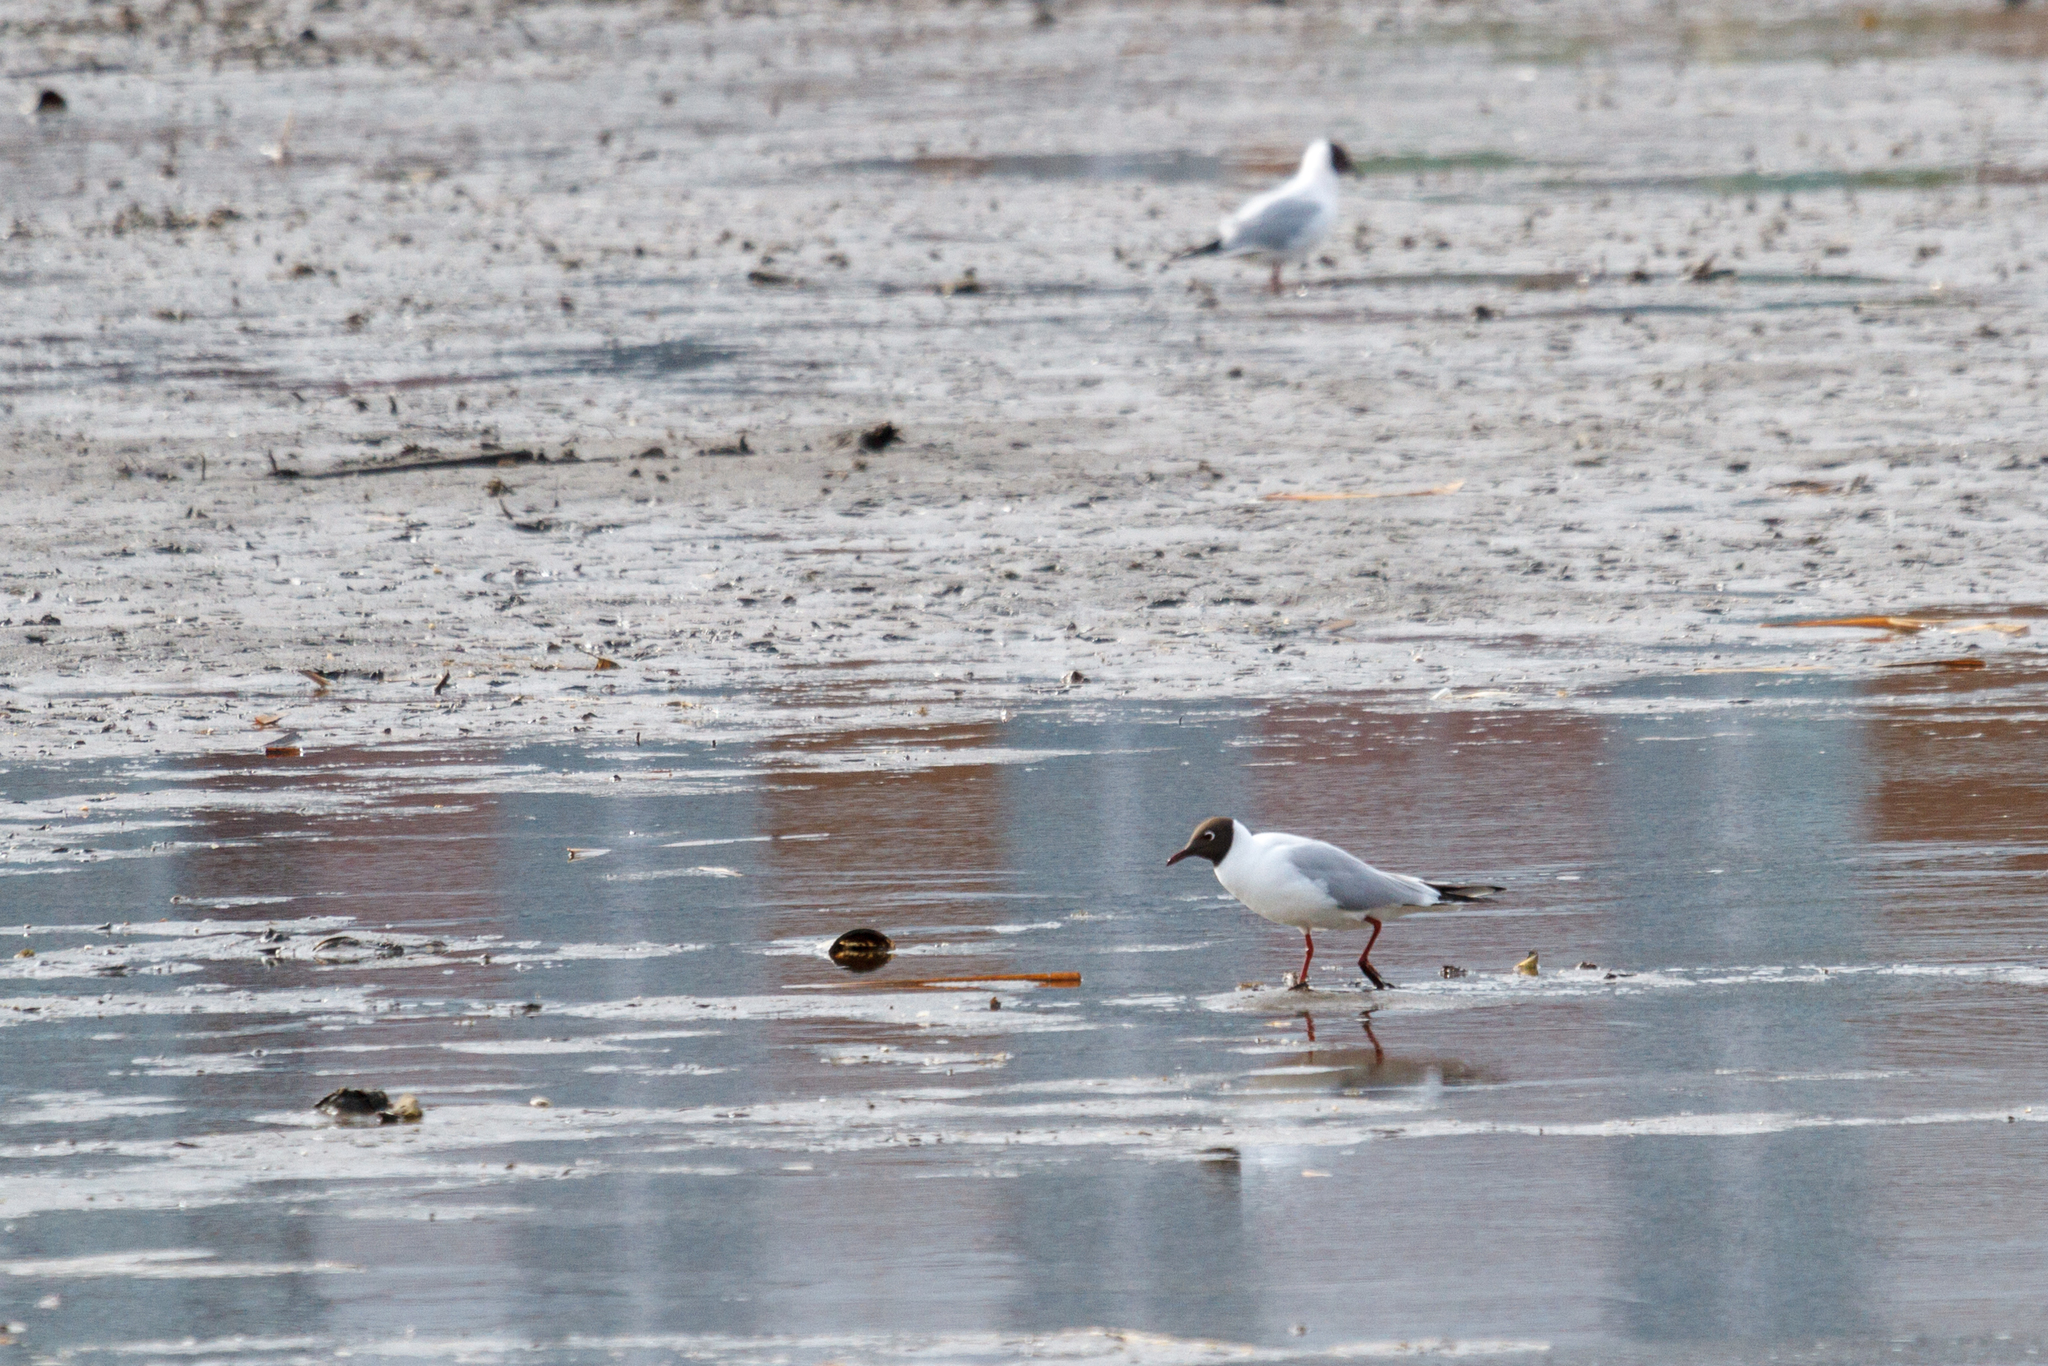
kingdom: Animalia
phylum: Chordata
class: Aves
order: Charadriiformes
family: Laridae
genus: Chroicocephalus
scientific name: Chroicocephalus ridibundus
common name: Black-headed gull
